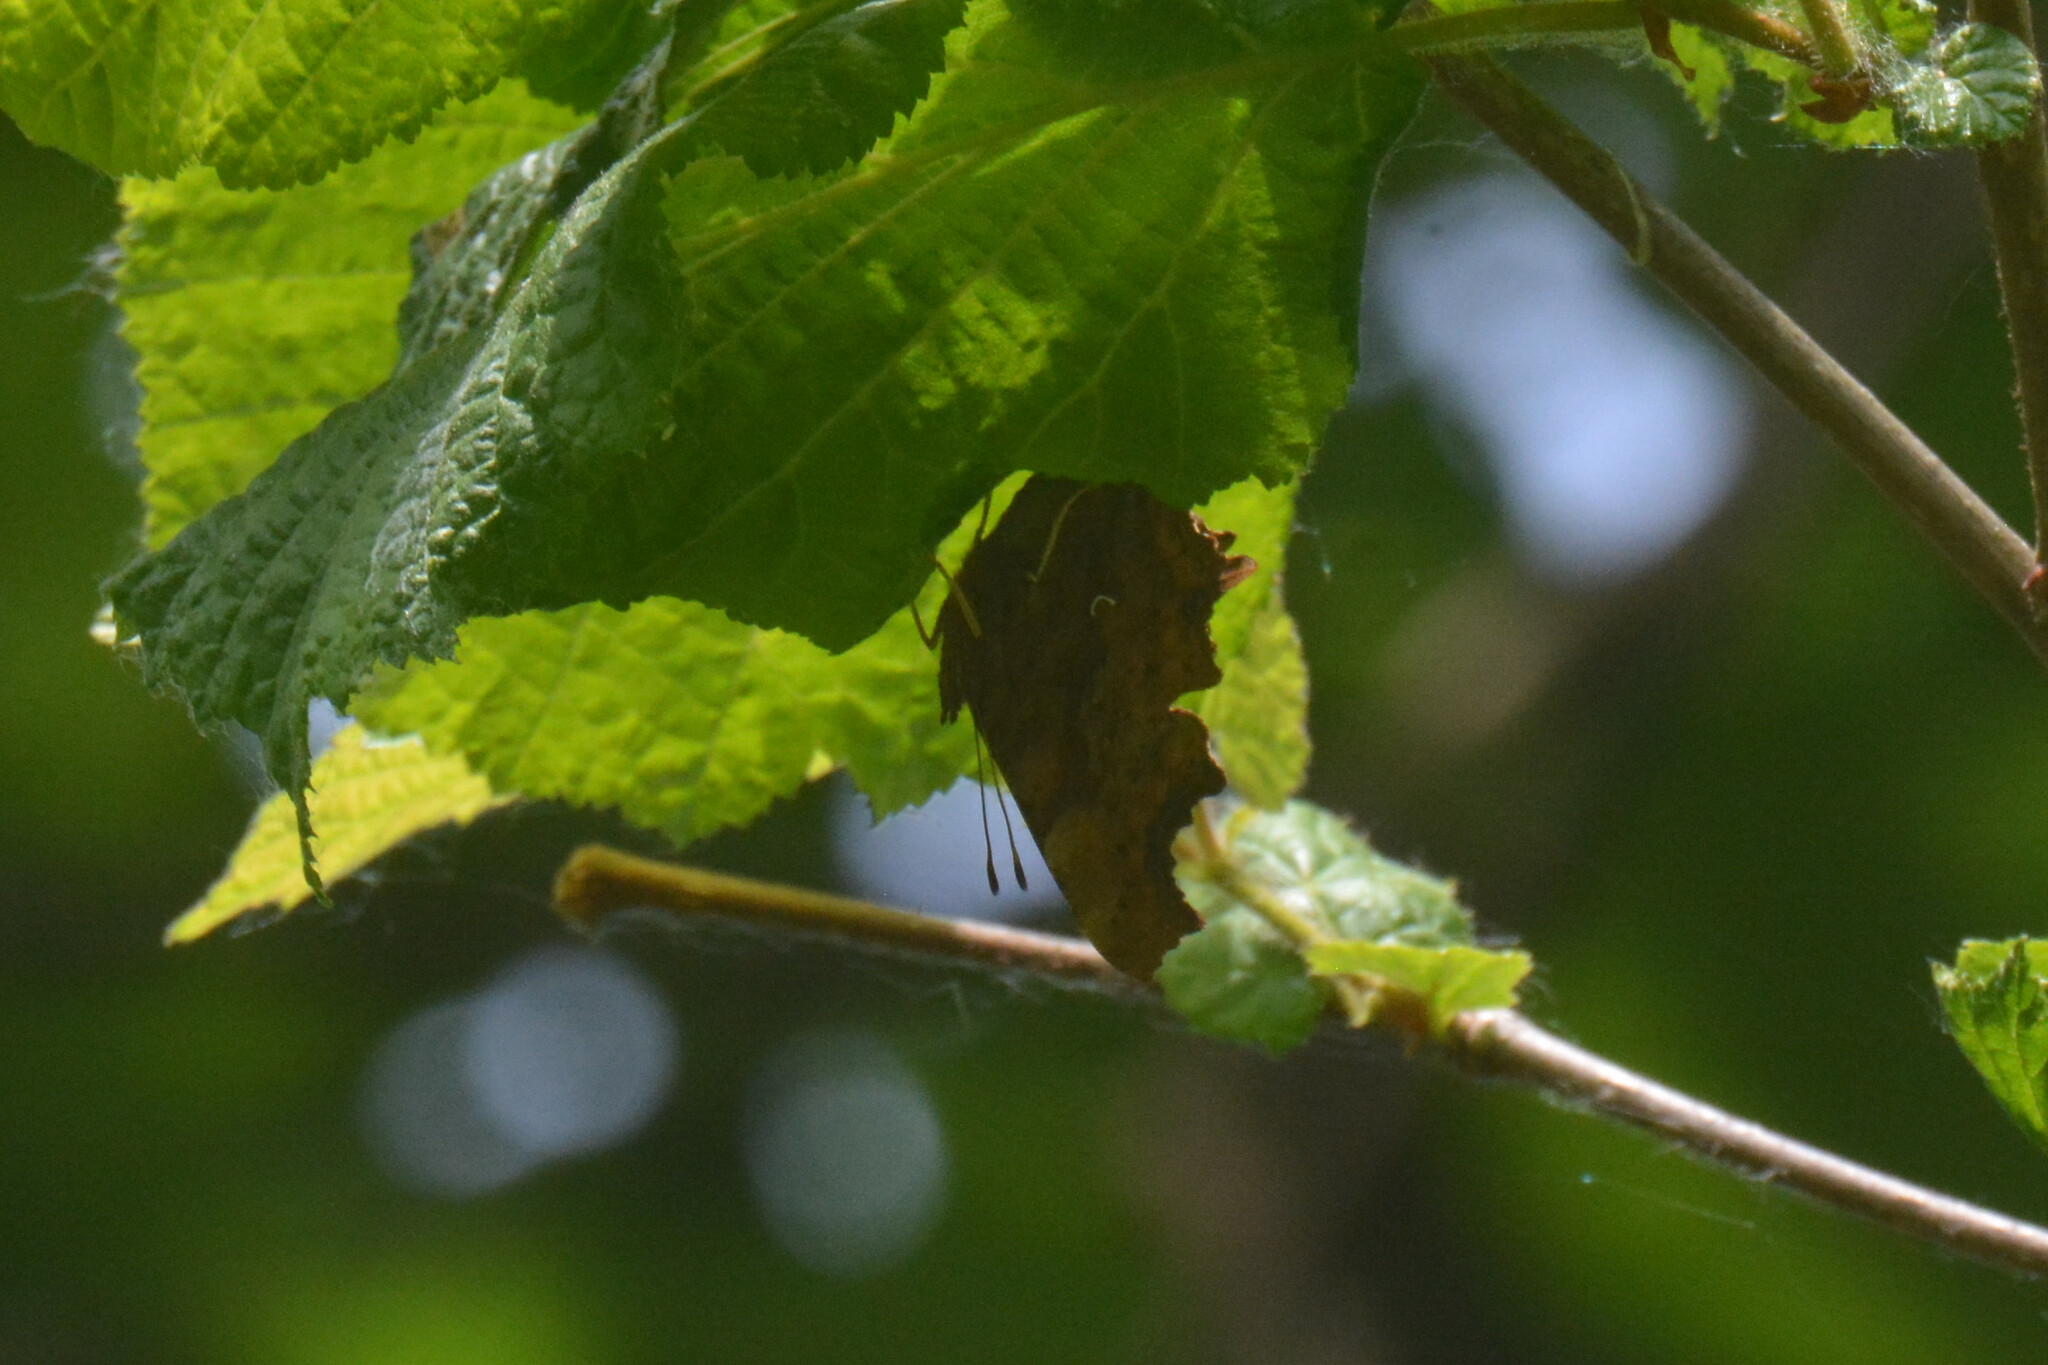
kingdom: Animalia
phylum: Arthropoda
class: Insecta
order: Lepidoptera
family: Nymphalidae
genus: Polygonia
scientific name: Polygonia c-album
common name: Comma
